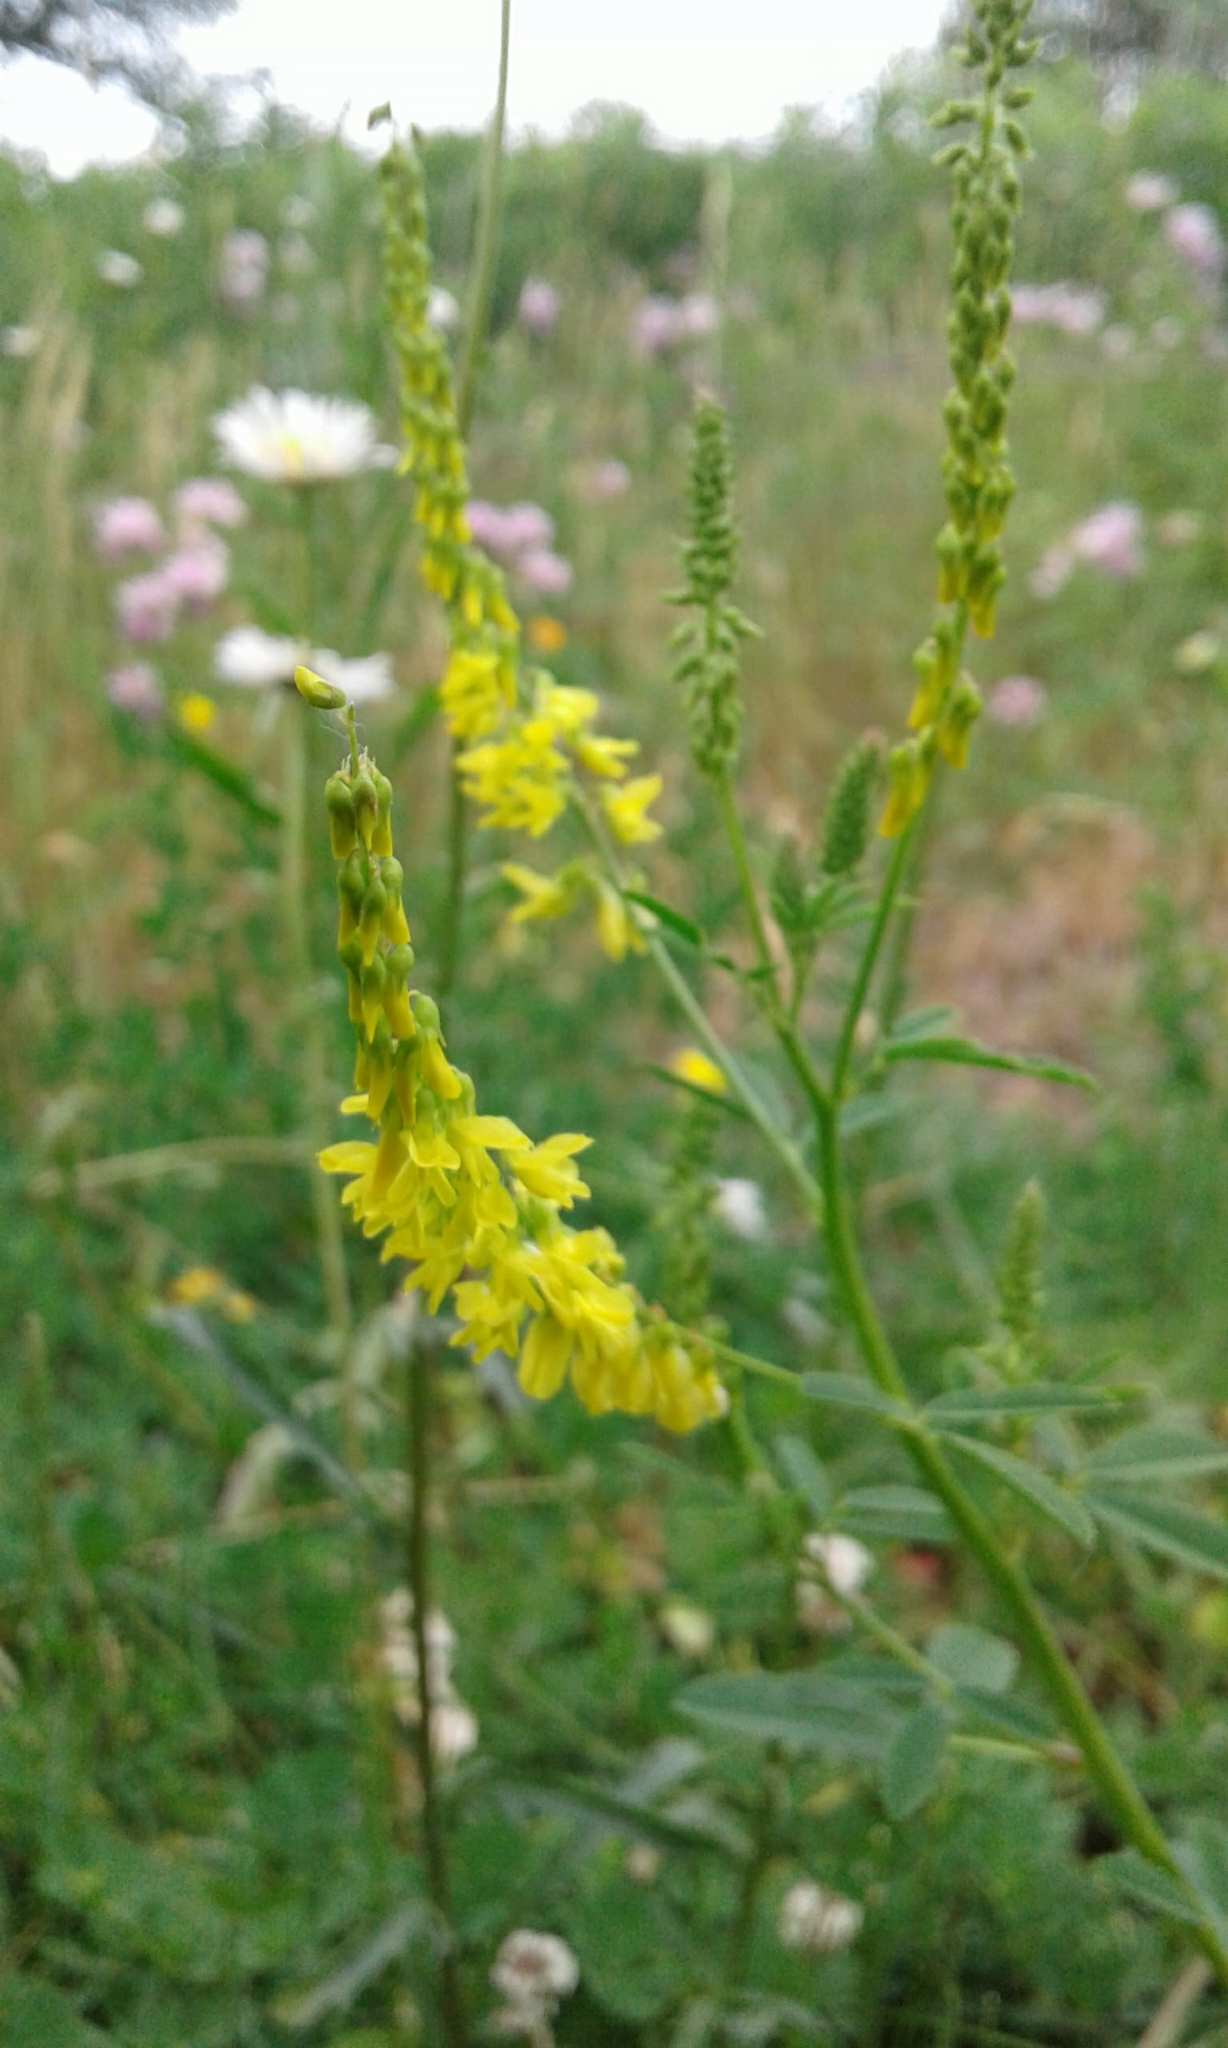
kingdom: Plantae
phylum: Tracheophyta
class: Magnoliopsida
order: Fabales
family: Fabaceae
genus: Melilotus
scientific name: Melilotus officinalis
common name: Sweetclover
